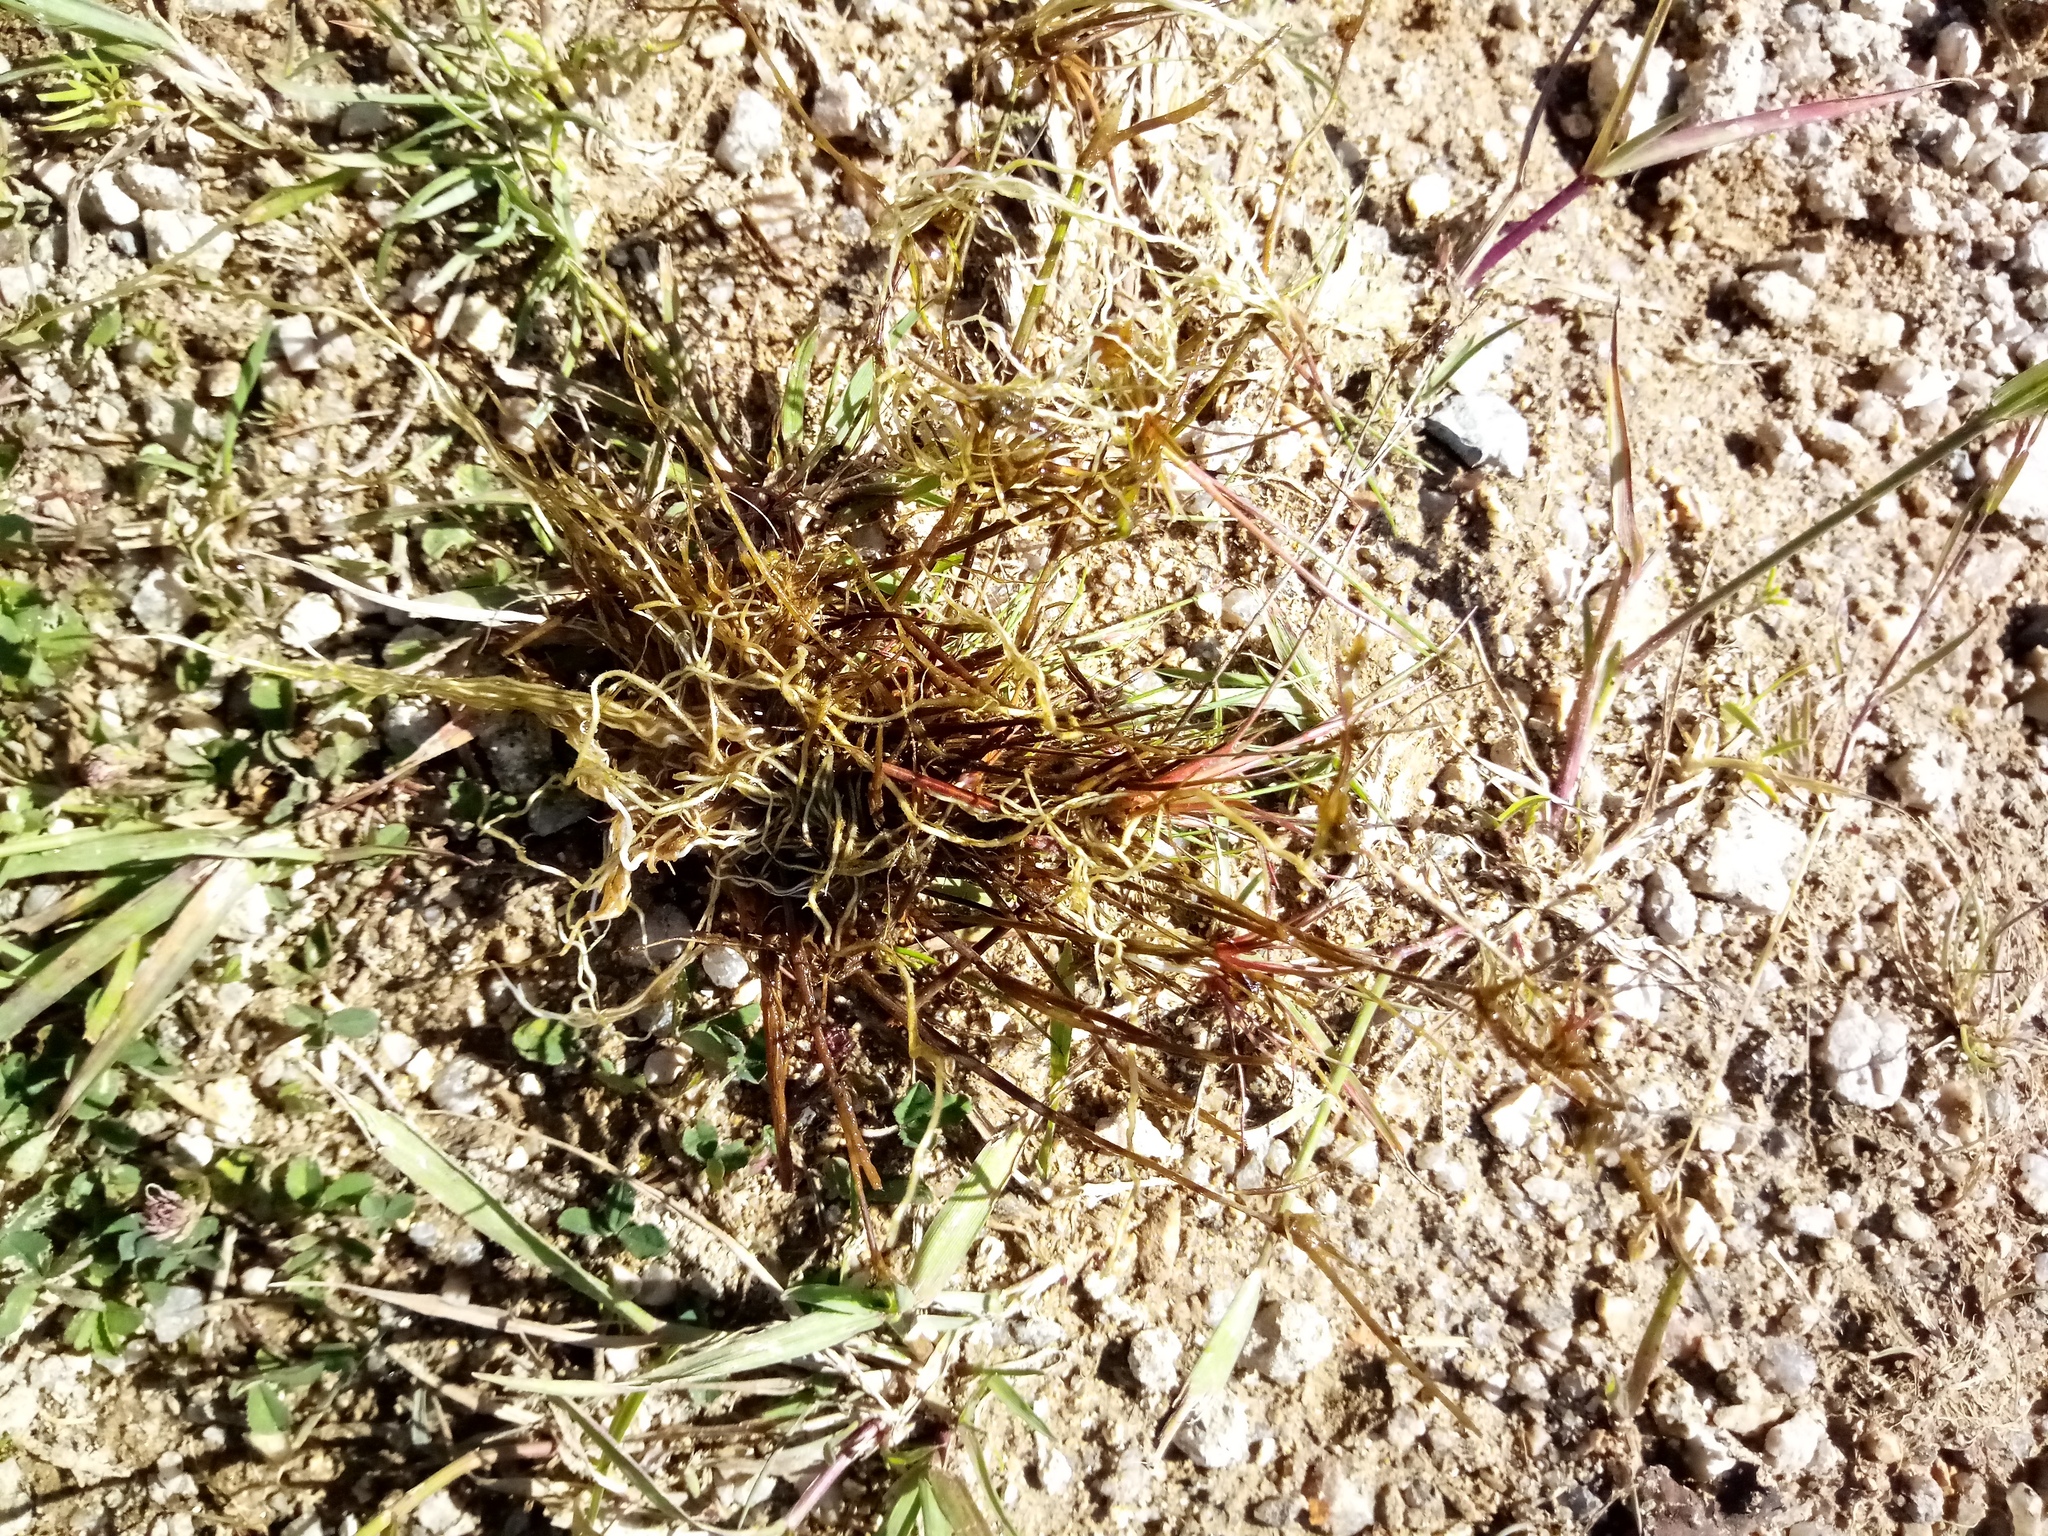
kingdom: Plantae
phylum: Tracheophyta
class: Liliopsida
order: Poales
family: Juncaceae
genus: Juncus
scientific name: Juncus bulbosus
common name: Bulbous rush
